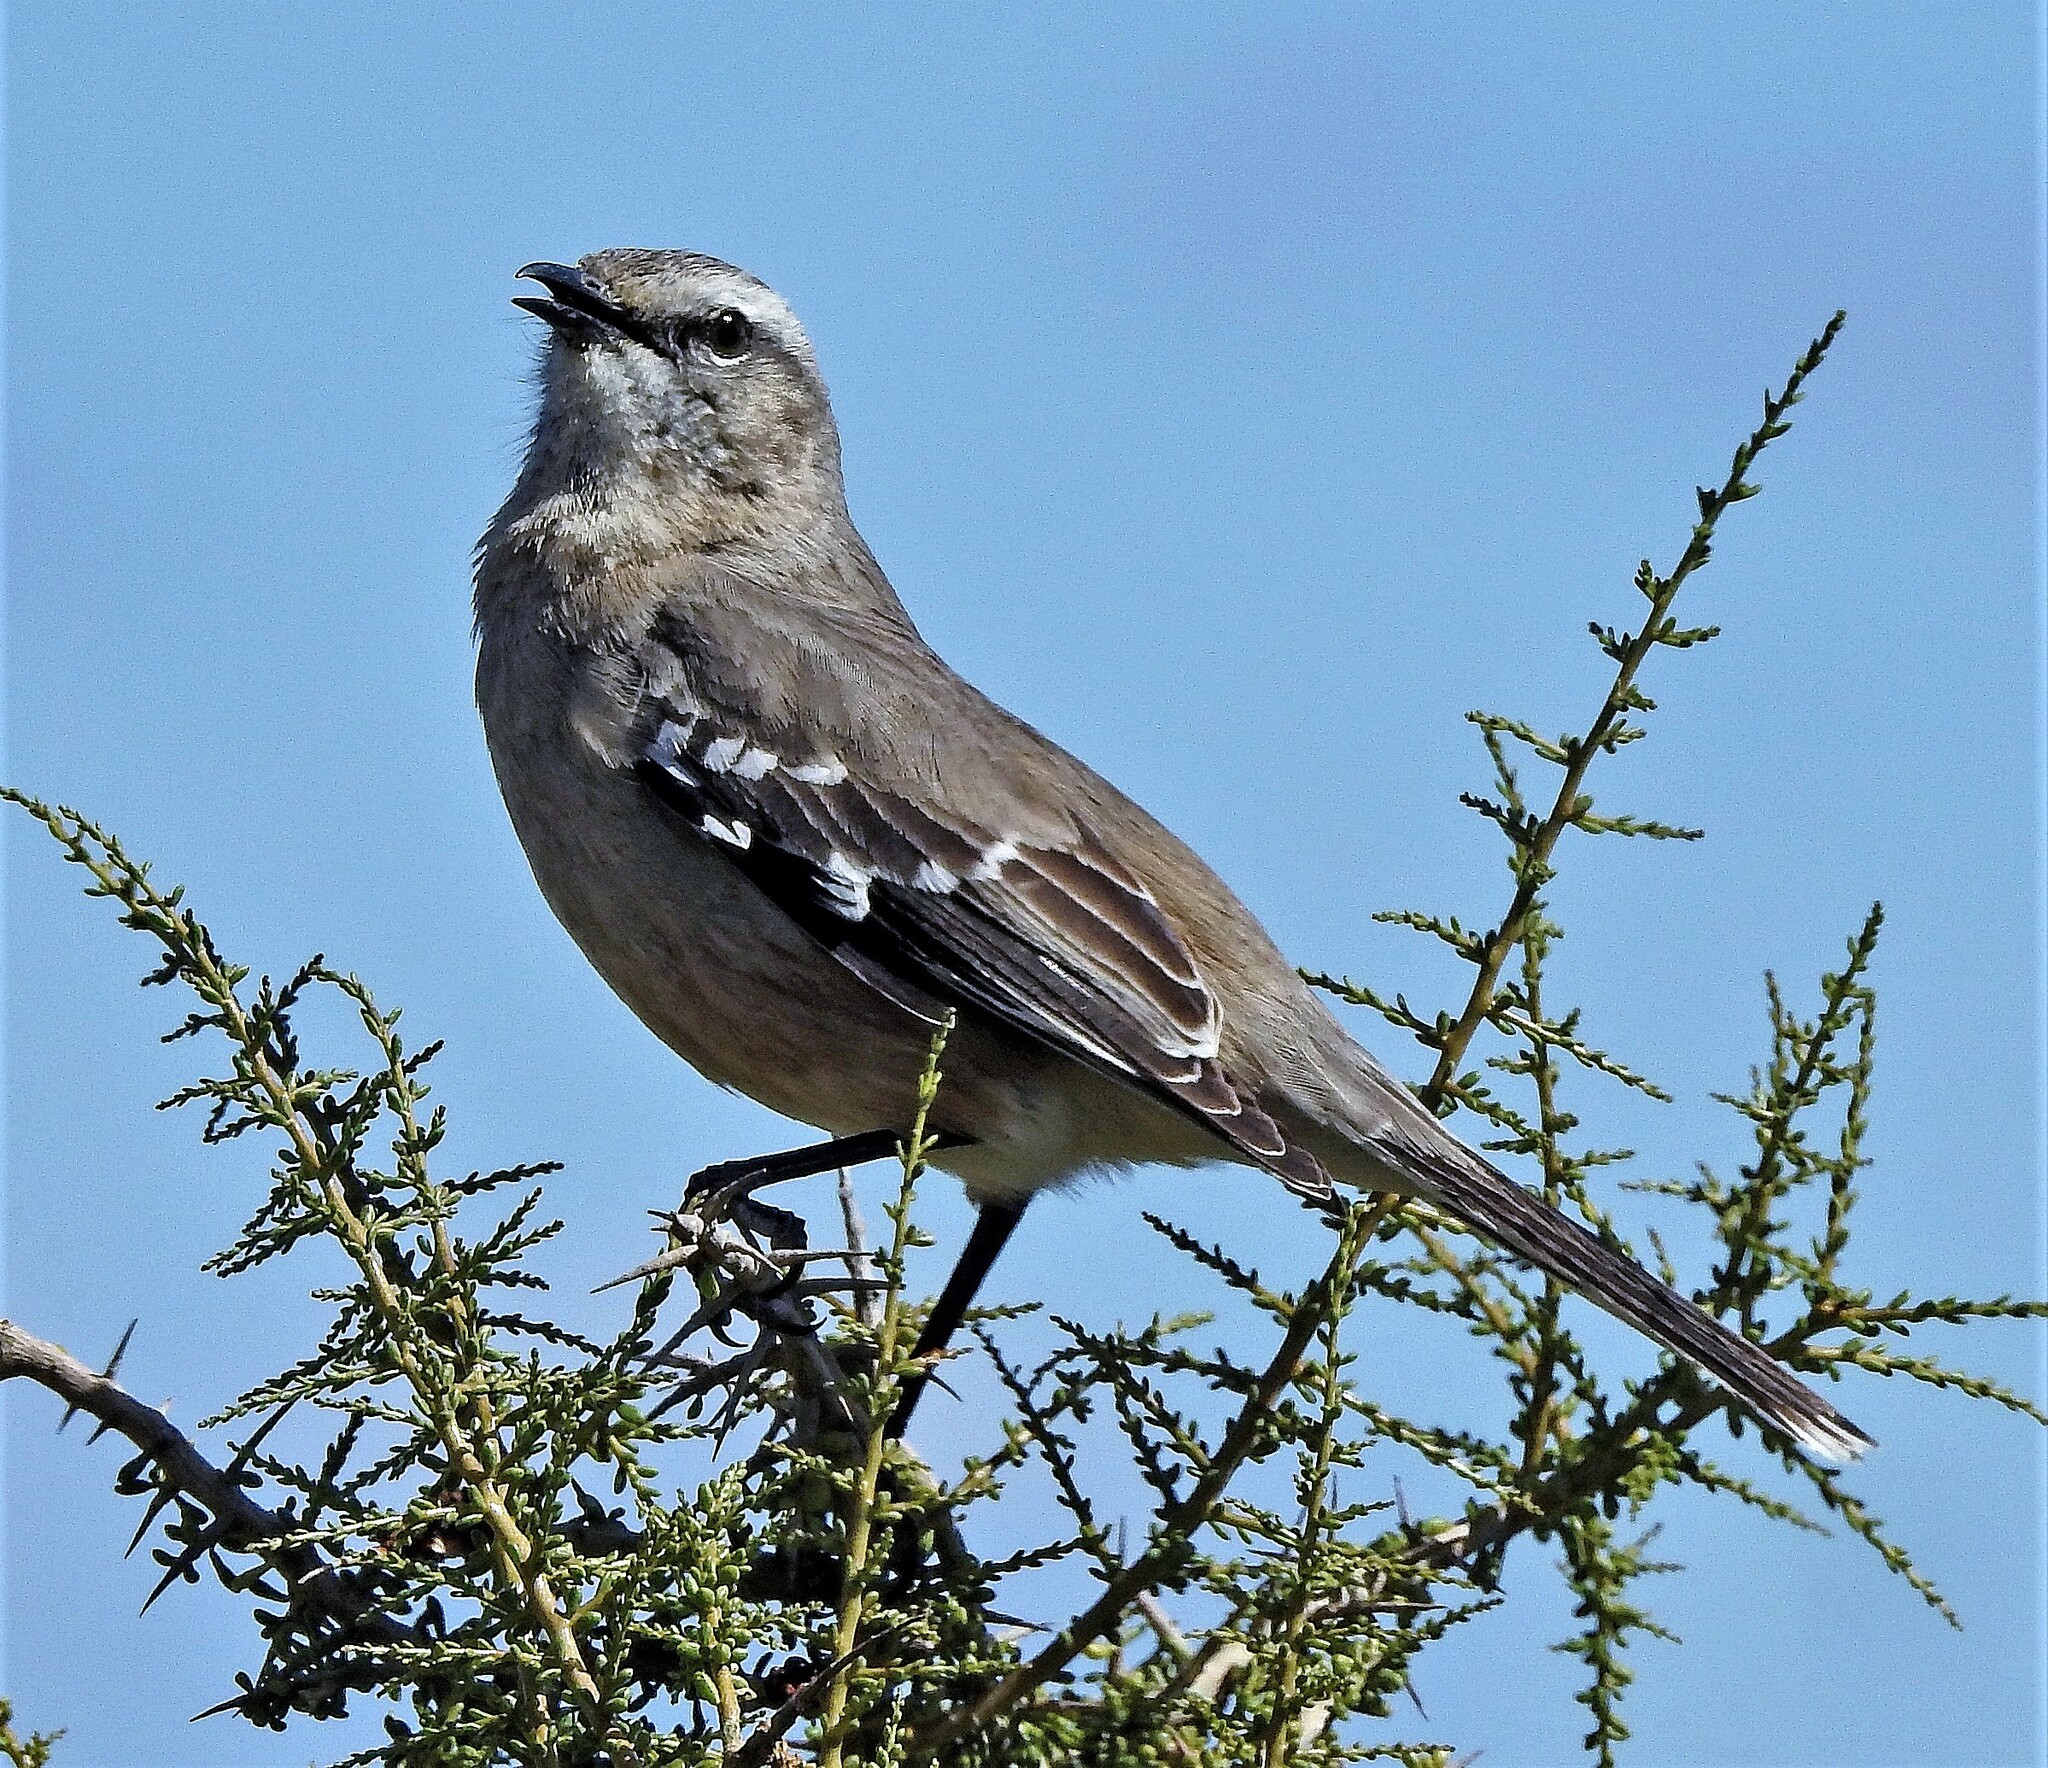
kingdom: Animalia
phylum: Chordata
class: Aves
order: Passeriformes
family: Mimidae
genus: Mimus
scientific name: Mimus patagonicus
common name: Patagonian mockingbird
